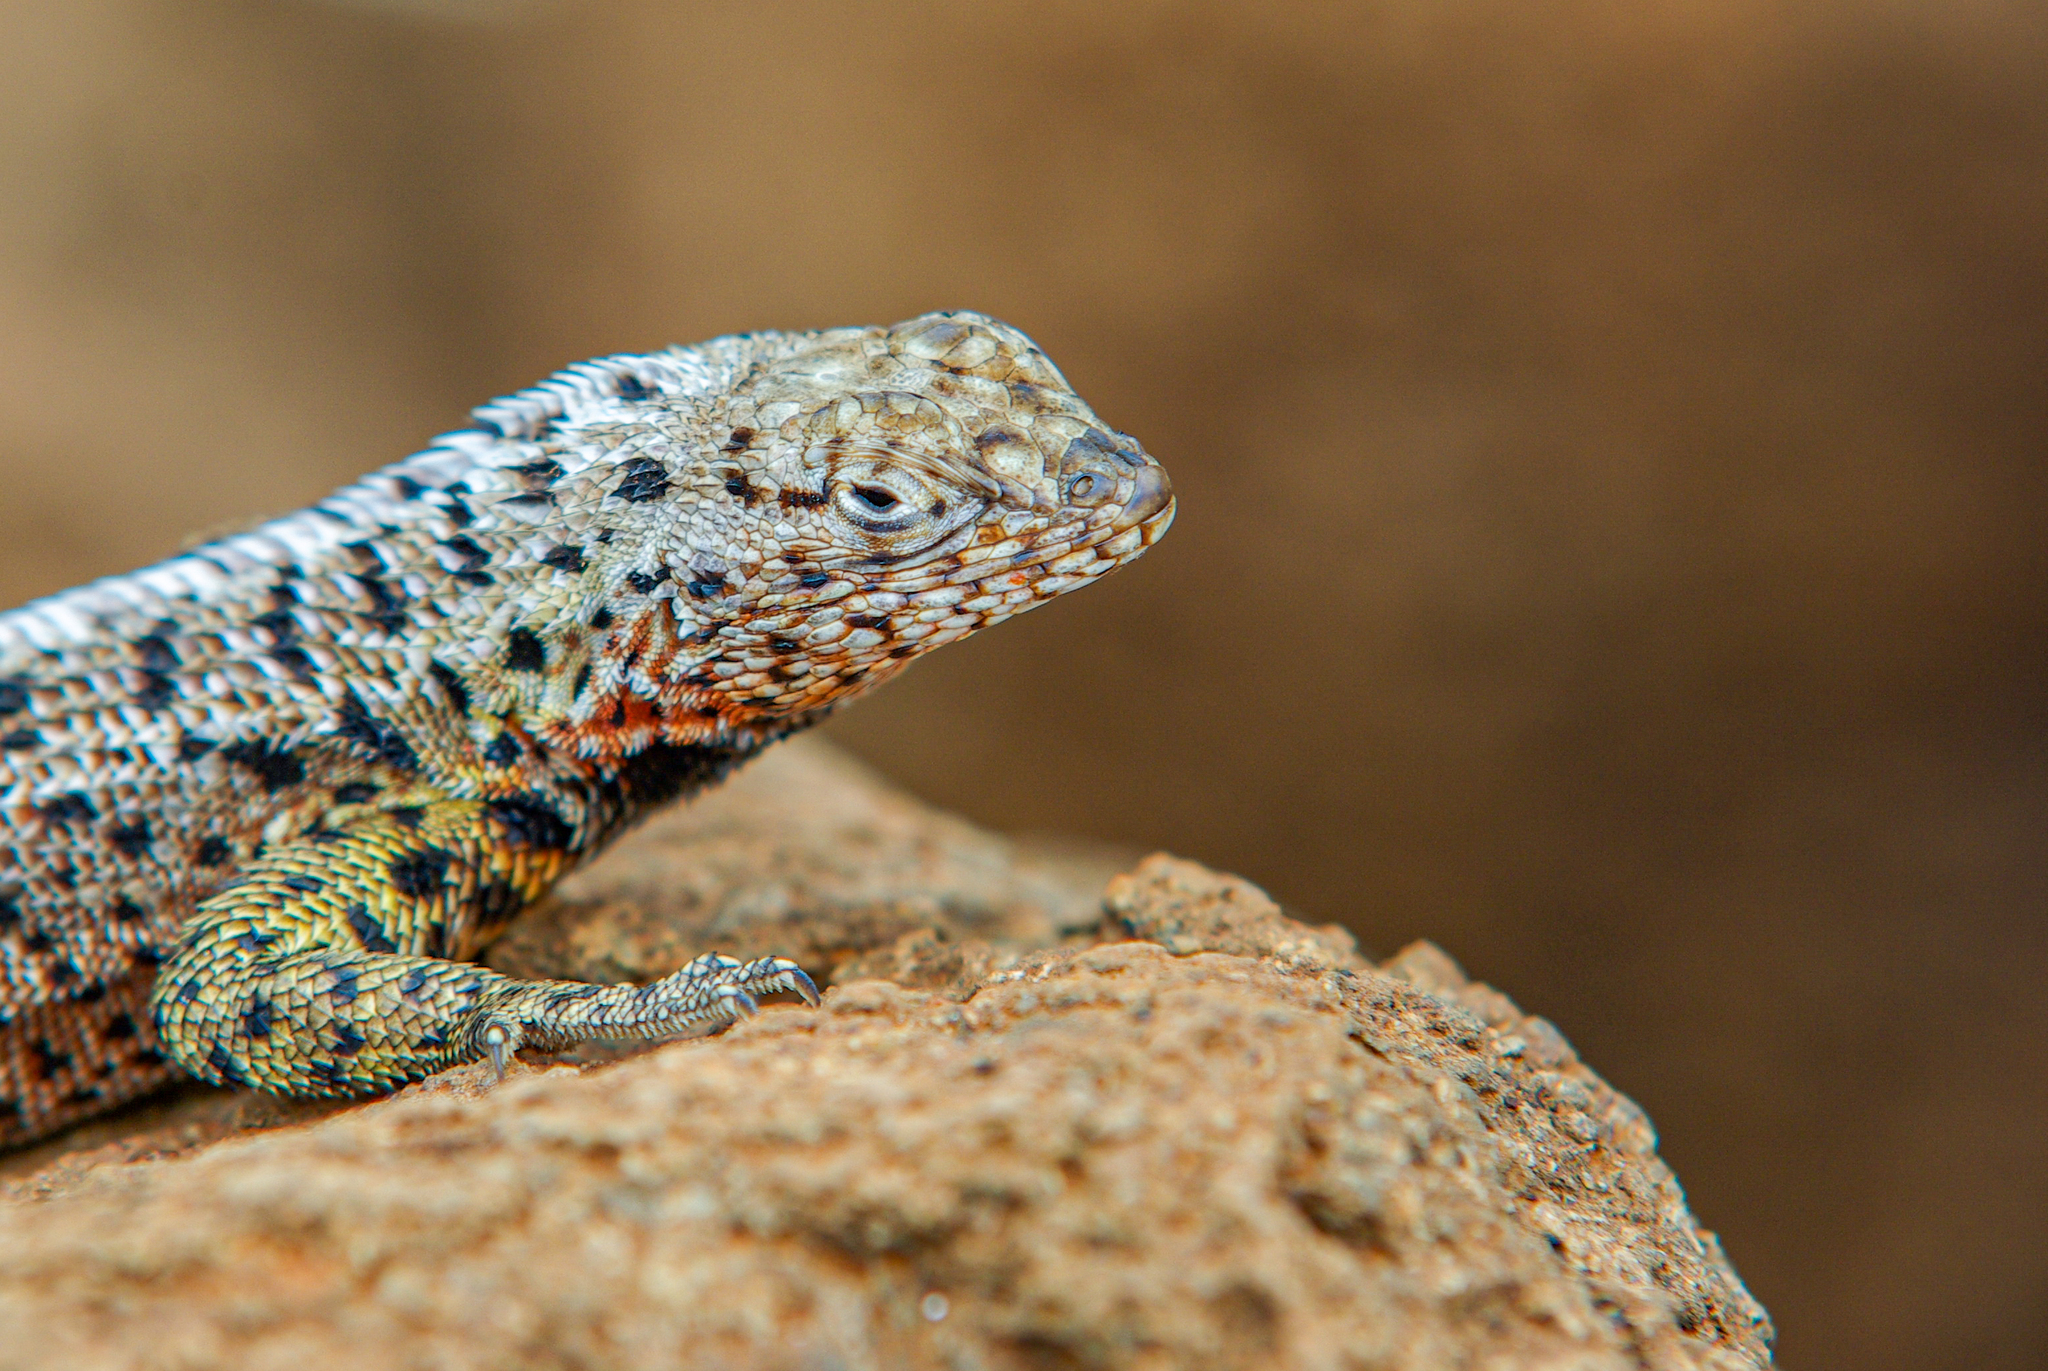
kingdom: Animalia
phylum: Chordata
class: Squamata
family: Tropiduridae
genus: Microlophus
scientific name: Microlophus indefatigabilis
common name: Galapagos lava lizard
